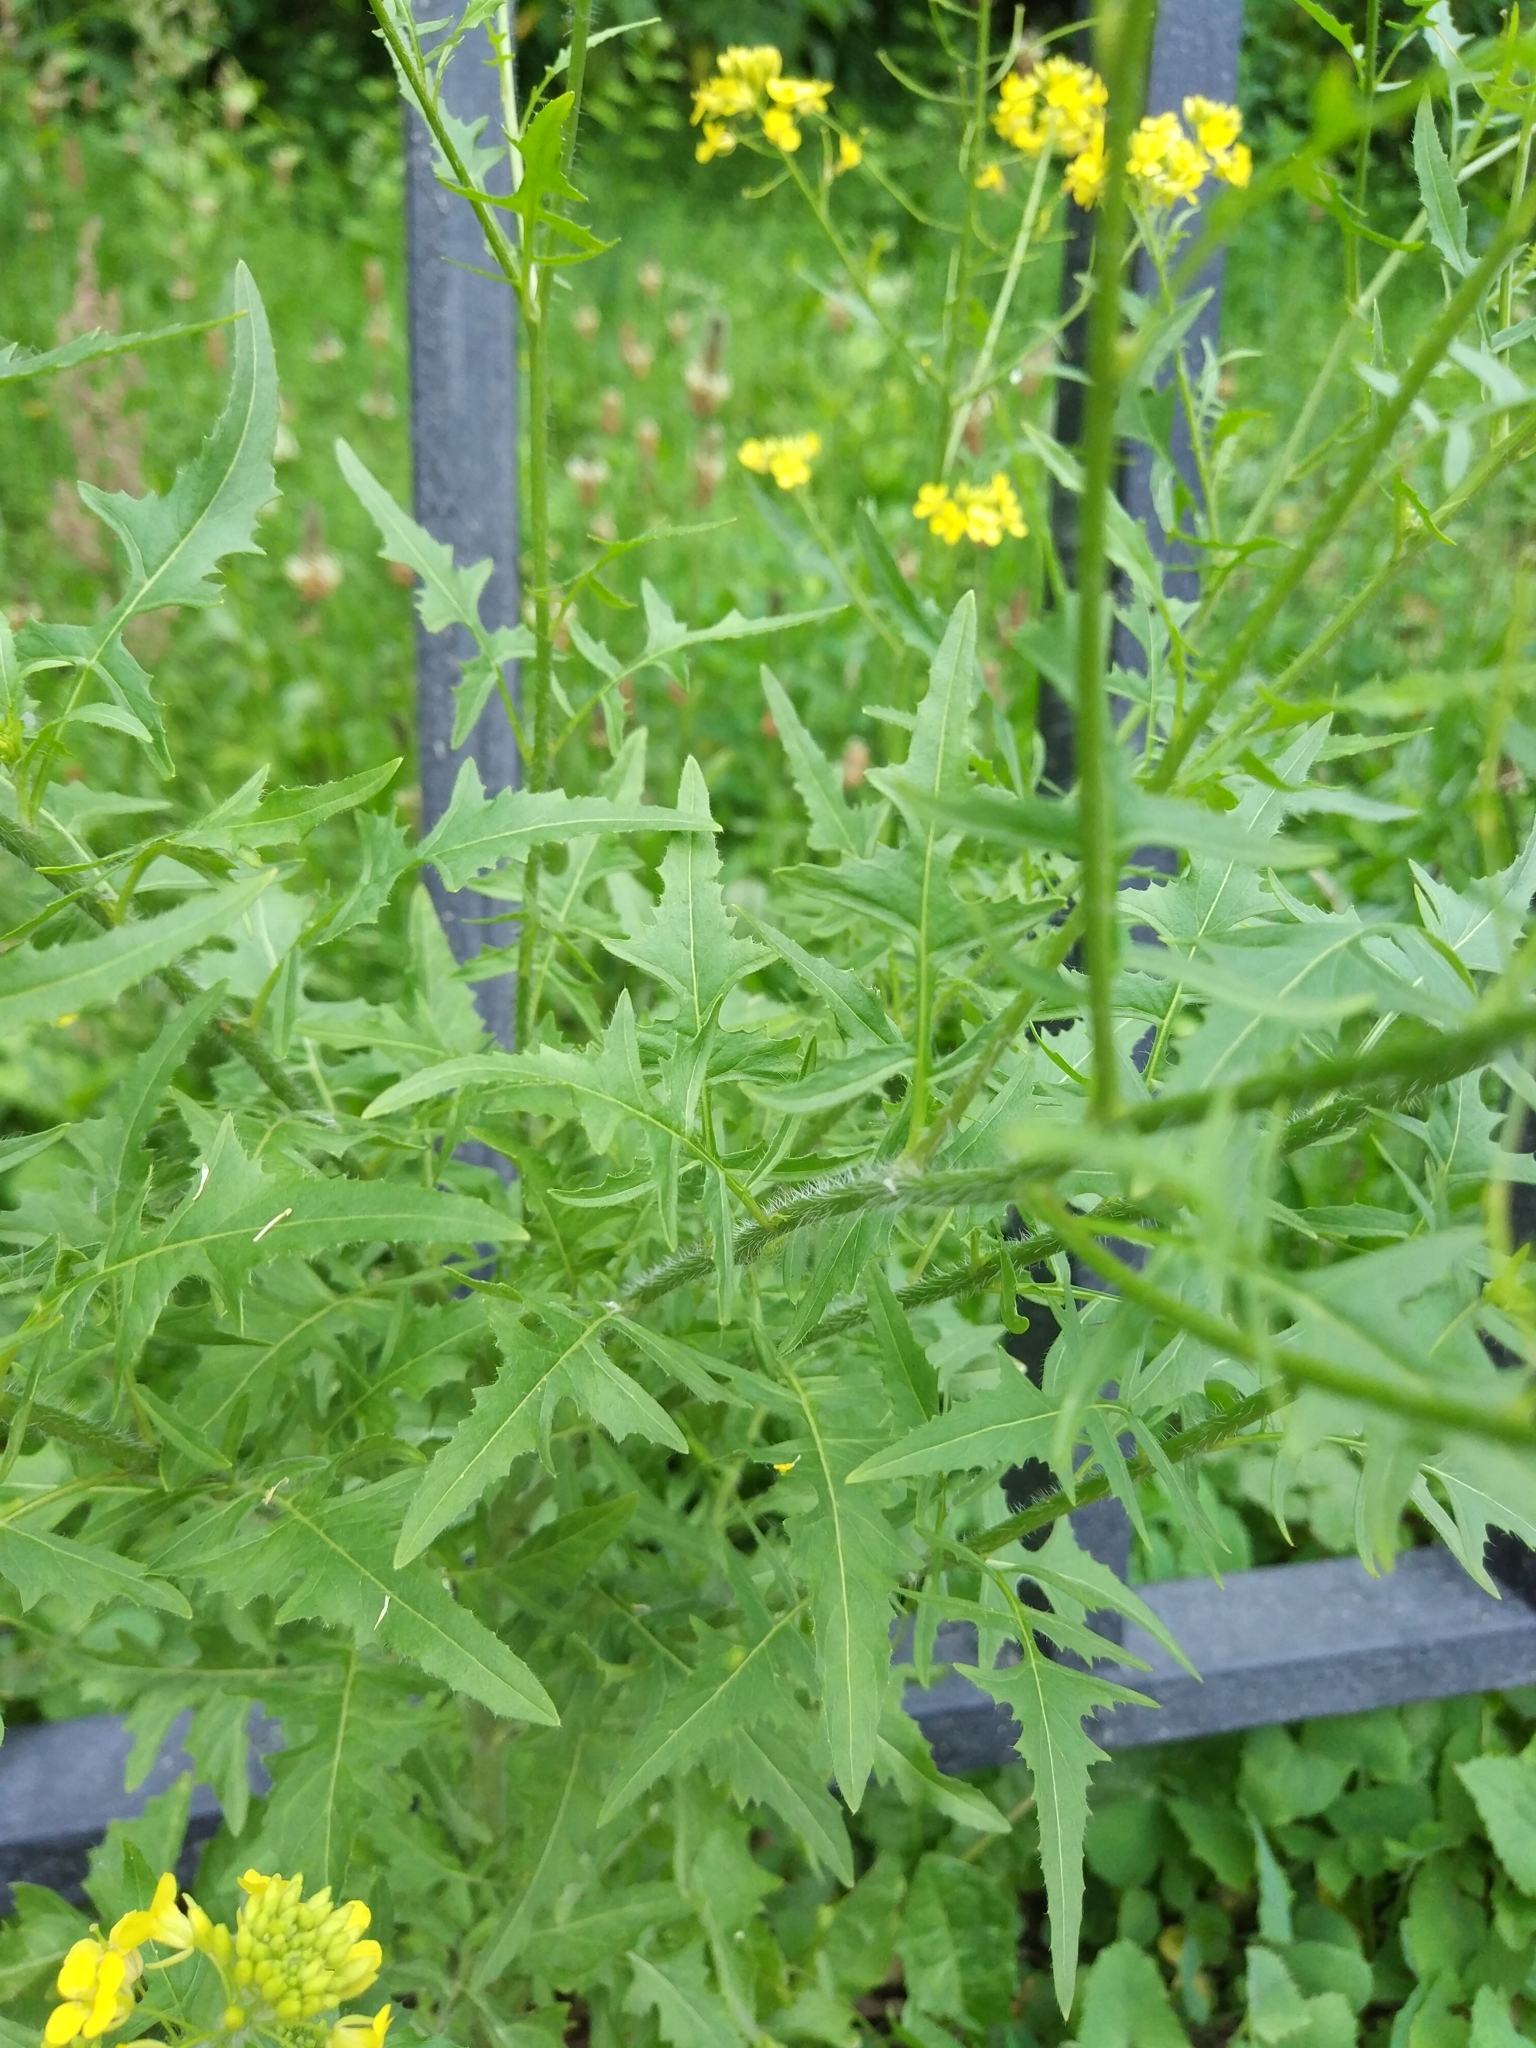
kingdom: Plantae
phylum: Tracheophyta
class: Magnoliopsida
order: Brassicales
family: Brassicaceae
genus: Sisymbrium
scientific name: Sisymbrium loeselii
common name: False london-rocket
